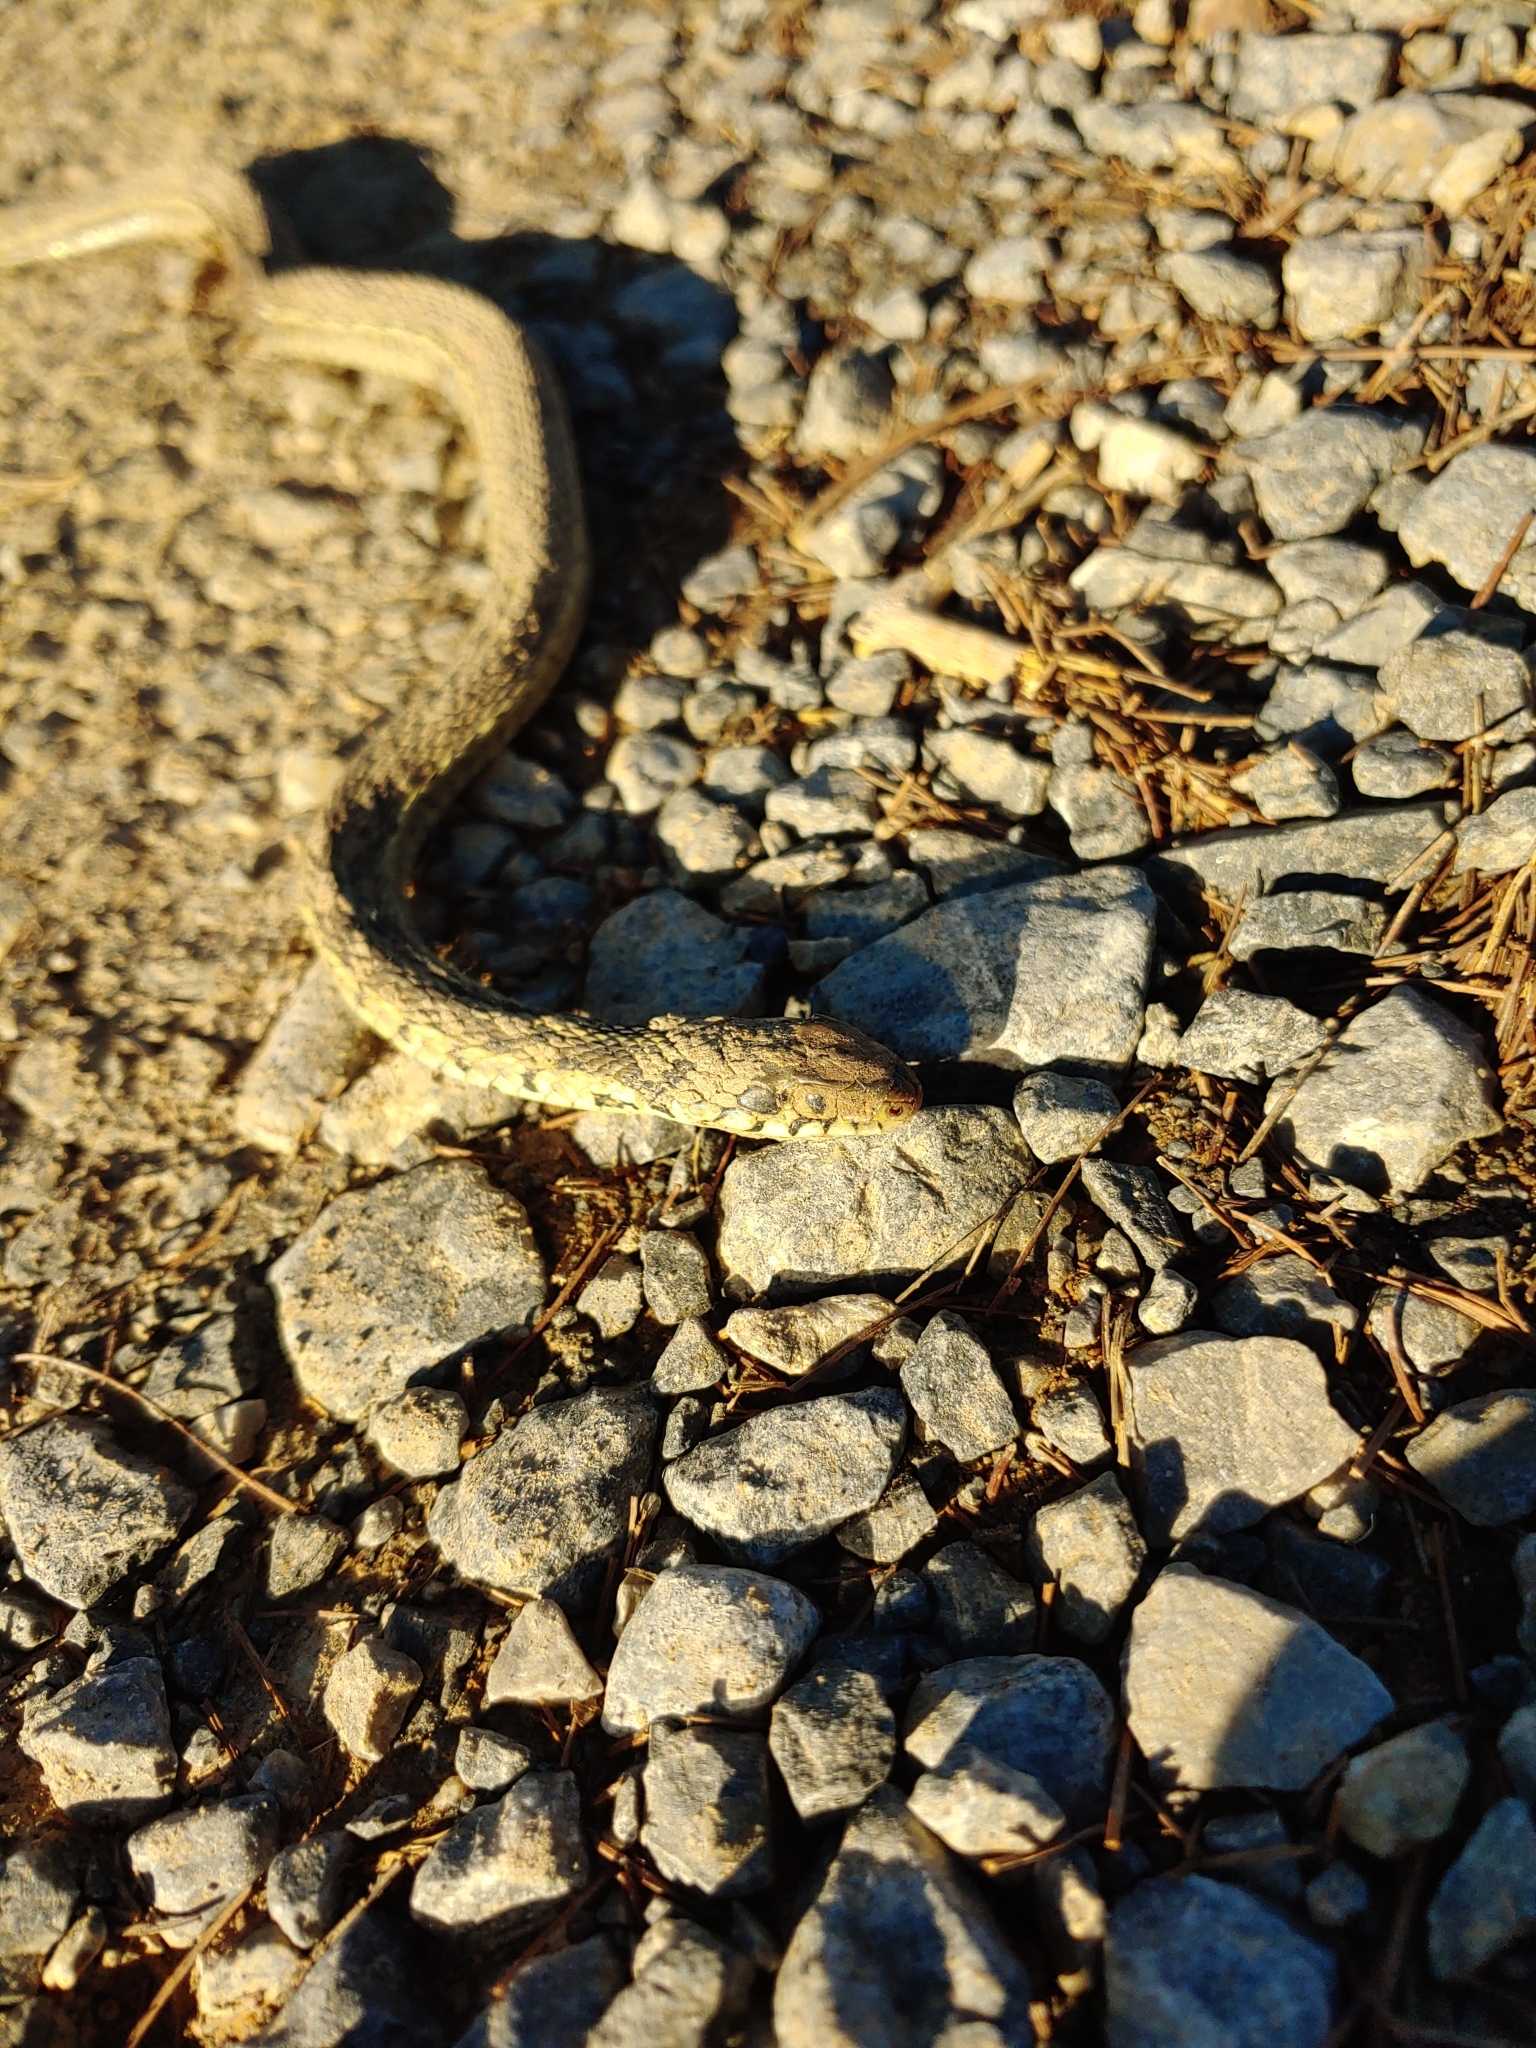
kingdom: Animalia
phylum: Chordata
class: Squamata
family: Colubridae
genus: Thamnophis
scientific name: Thamnophis sirtalis
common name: Common garter snake
